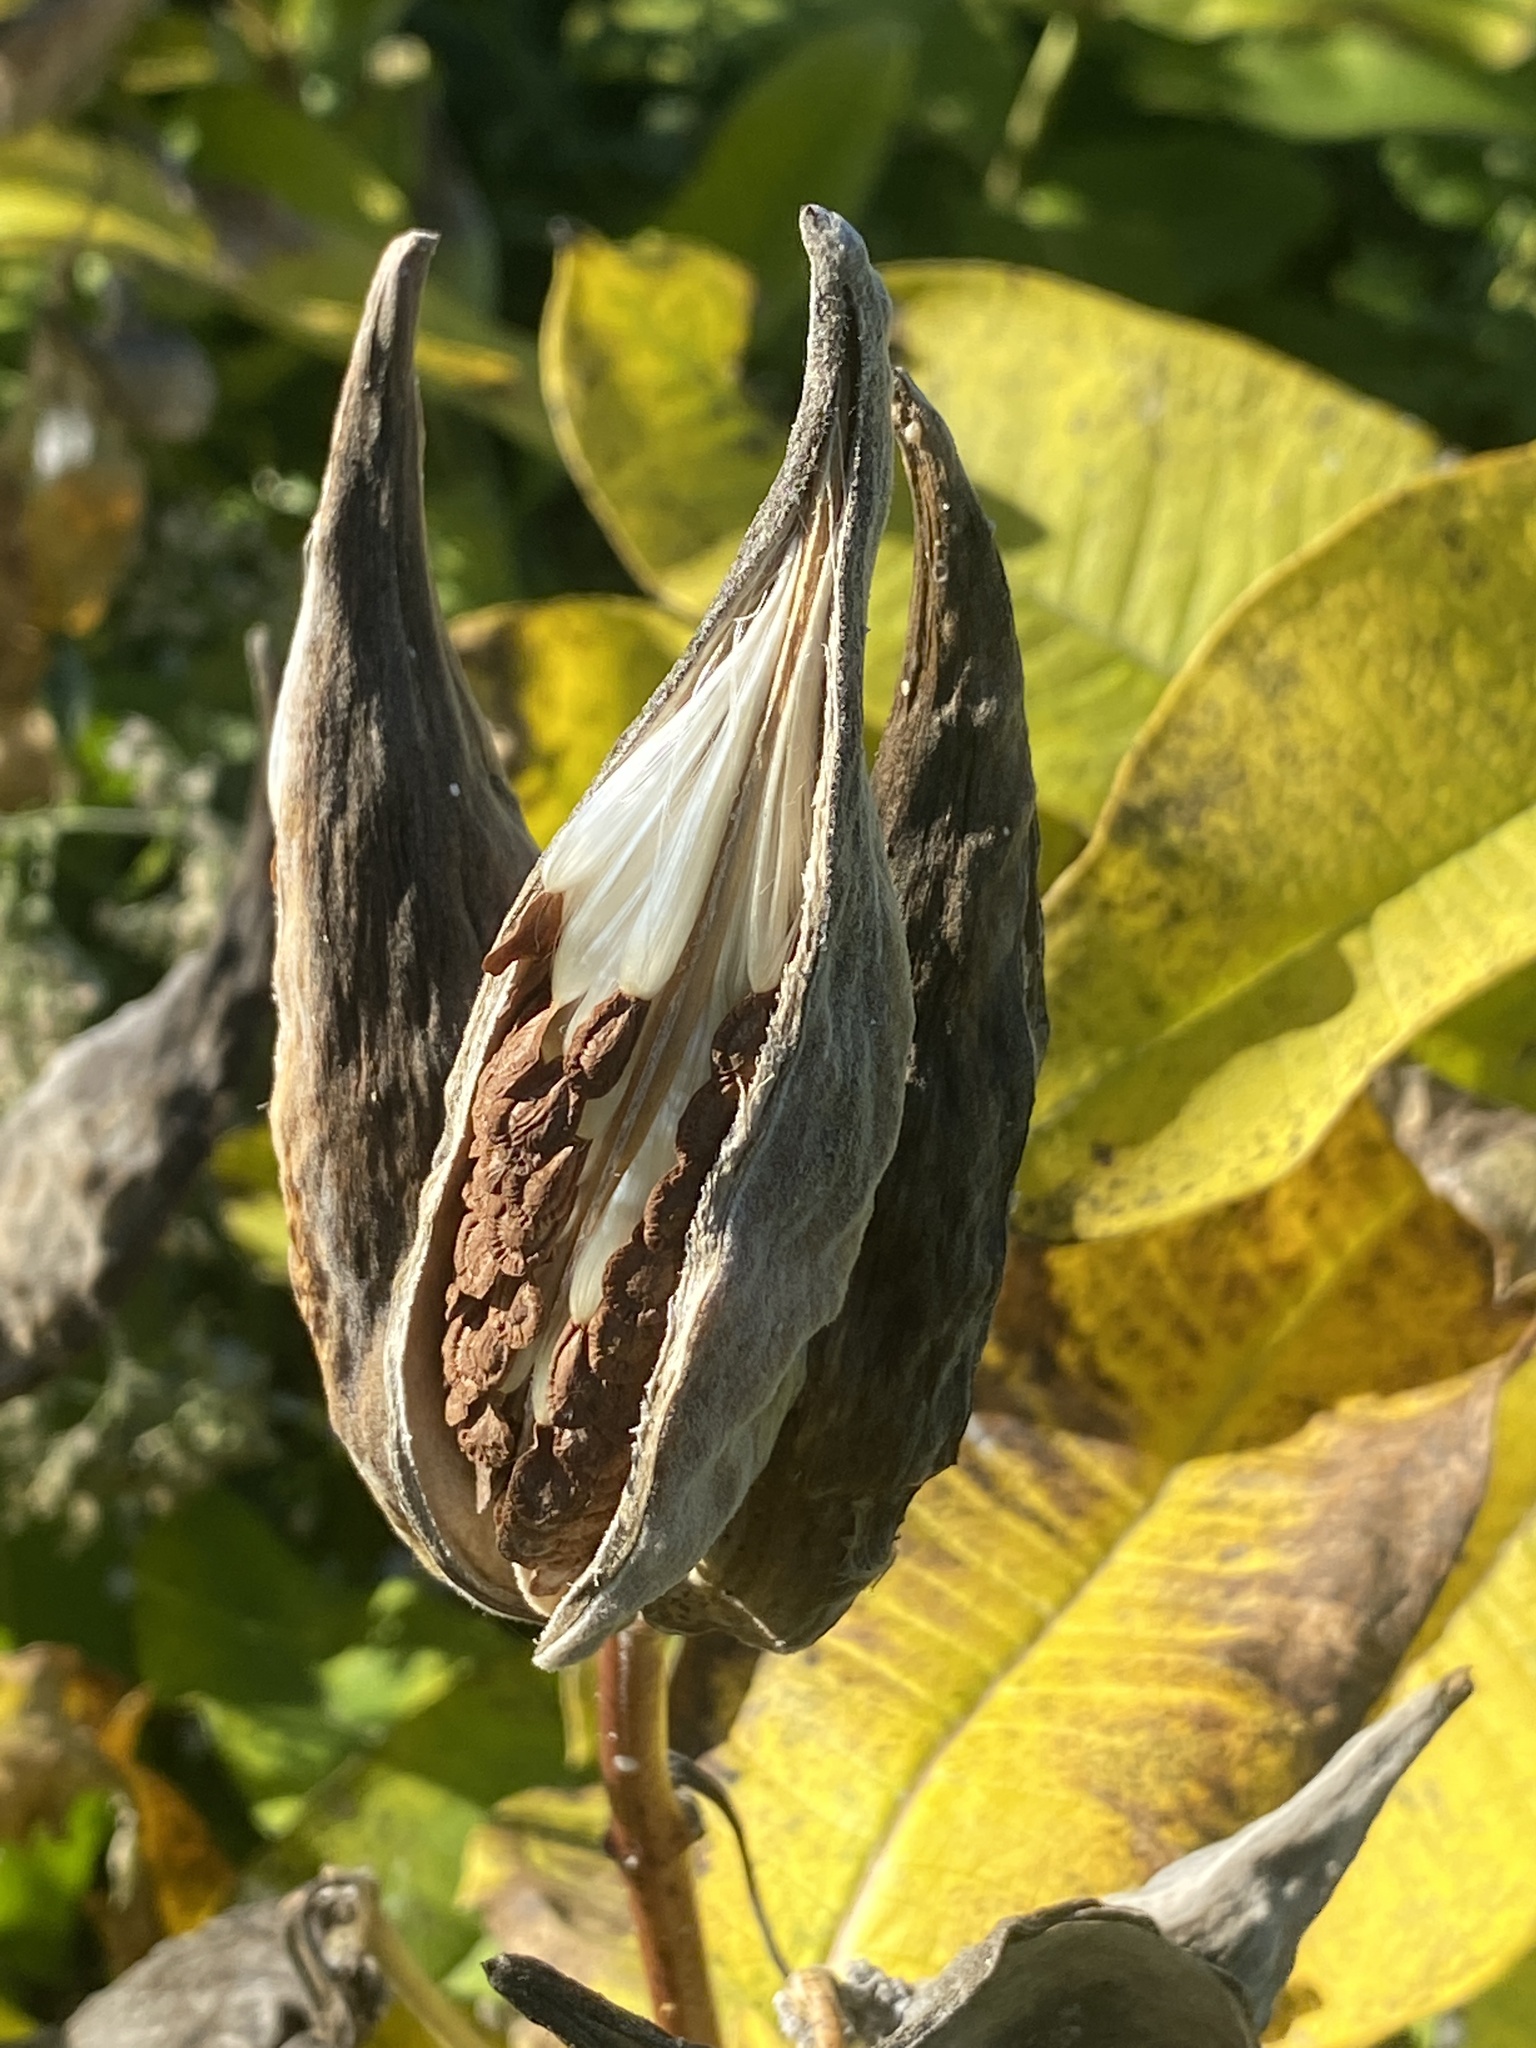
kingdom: Plantae
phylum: Tracheophyta
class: Magnoliopsida
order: Gentianales
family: Apocynaceae
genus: Asclepias
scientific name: Asclepias syriaca
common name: Common milkweed
